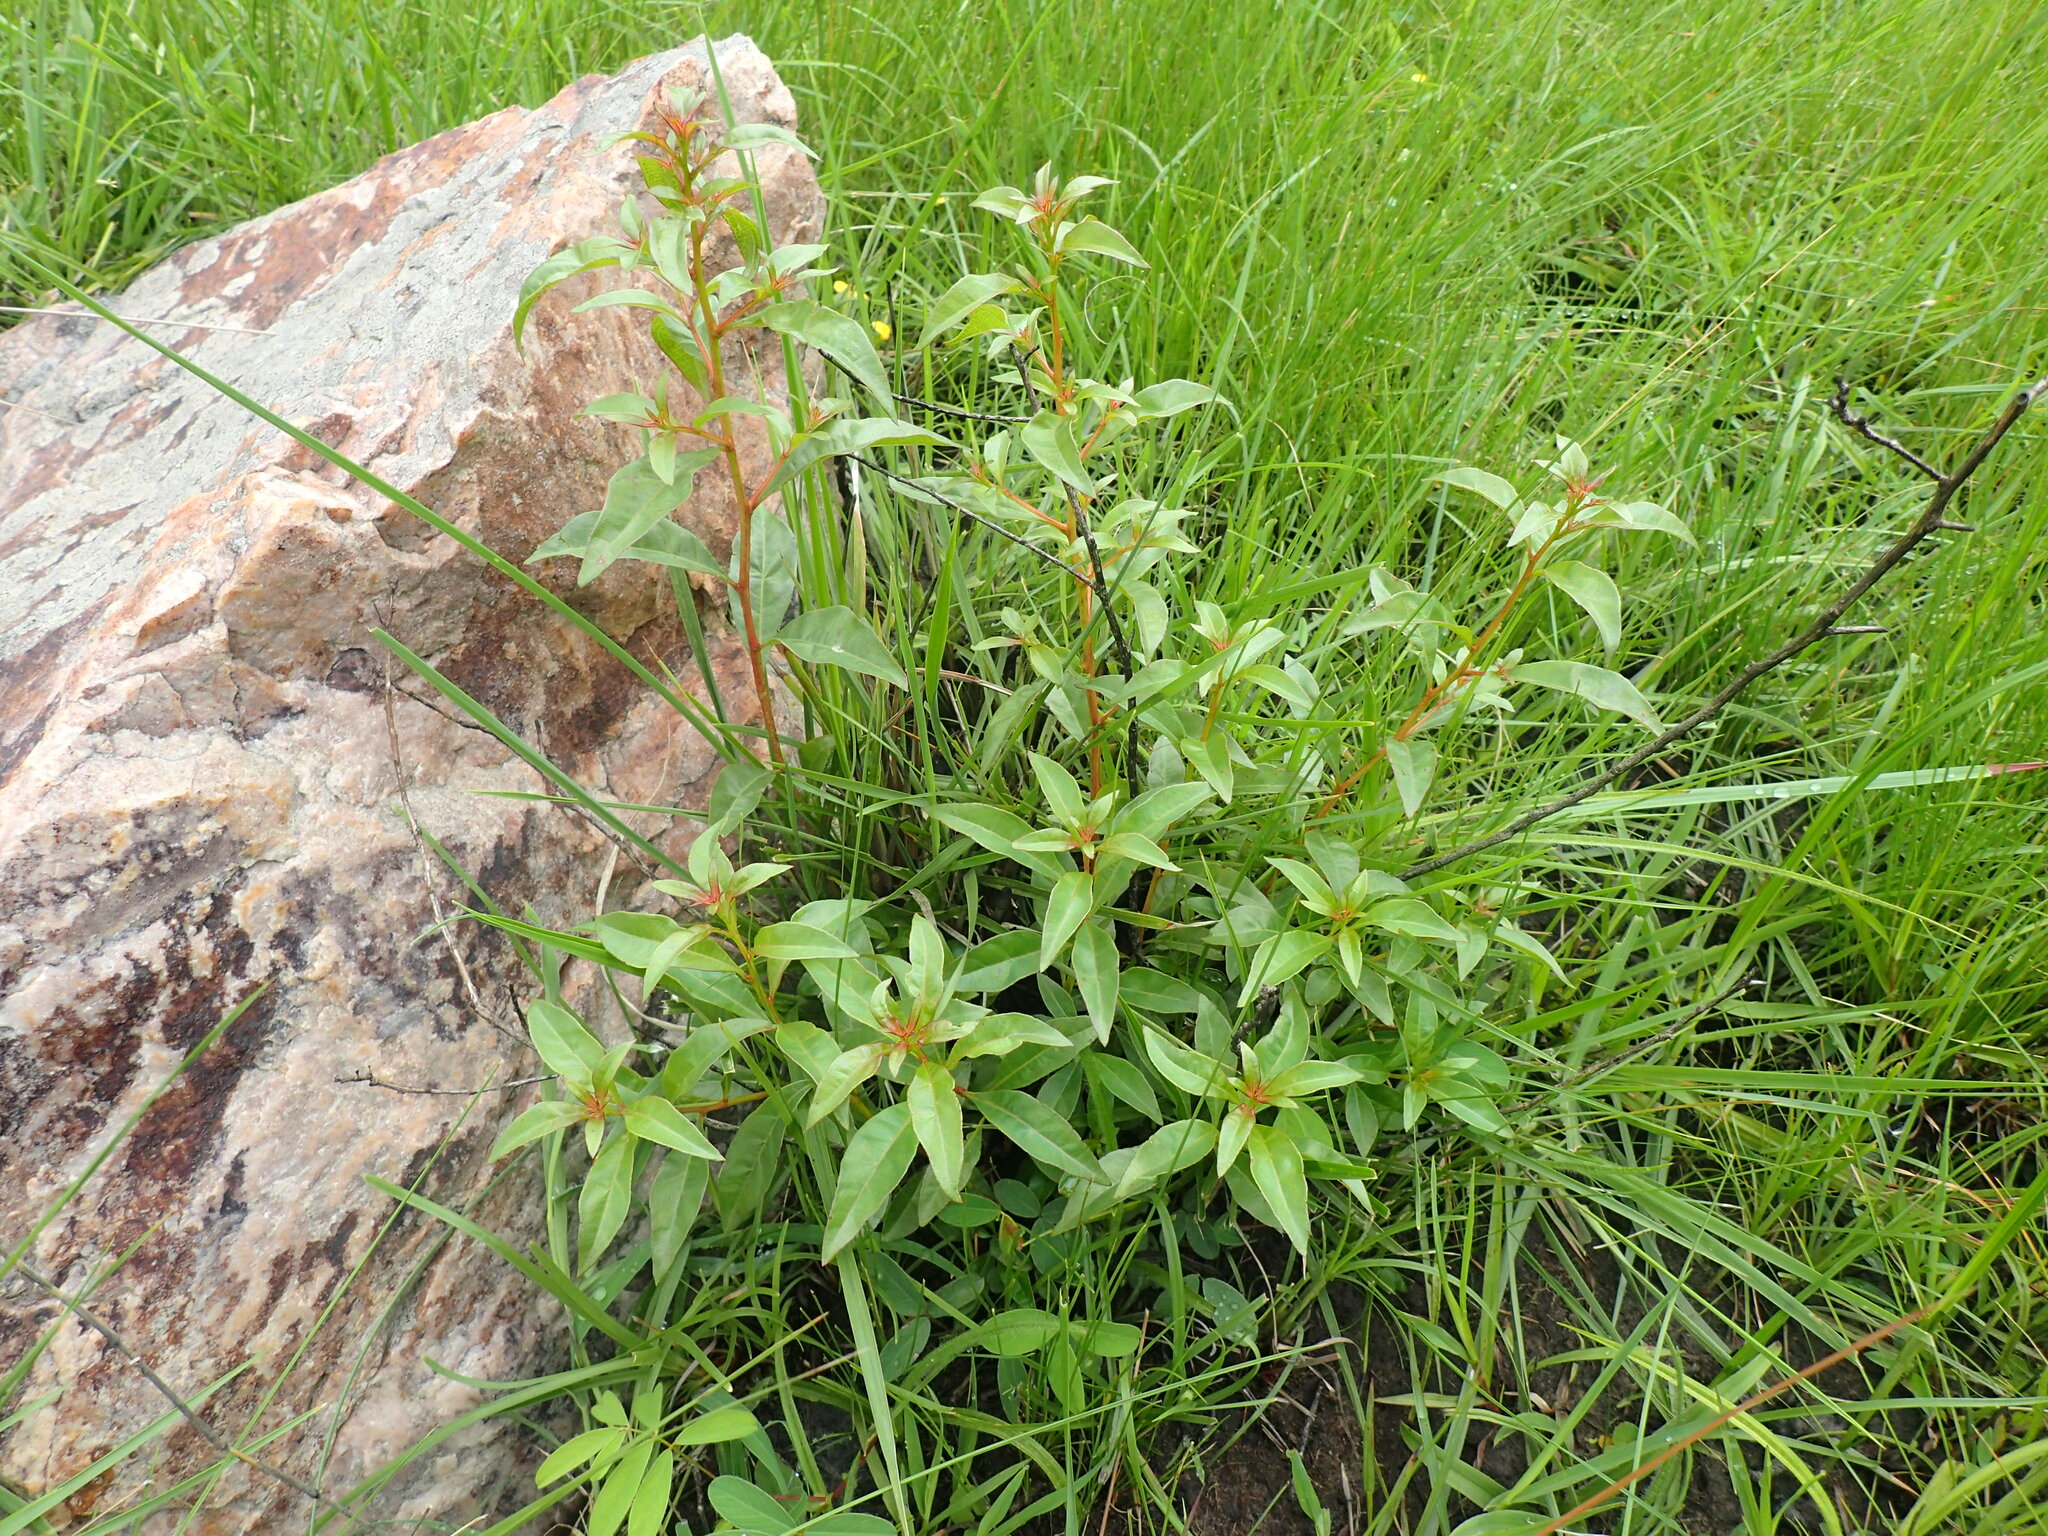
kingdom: Plantae
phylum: Tracheophyta
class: Magnoliopsida
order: Myrtales
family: Myrtaceae
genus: Heteropyxis
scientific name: Heteropyxis natalensis
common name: Lavender tree
